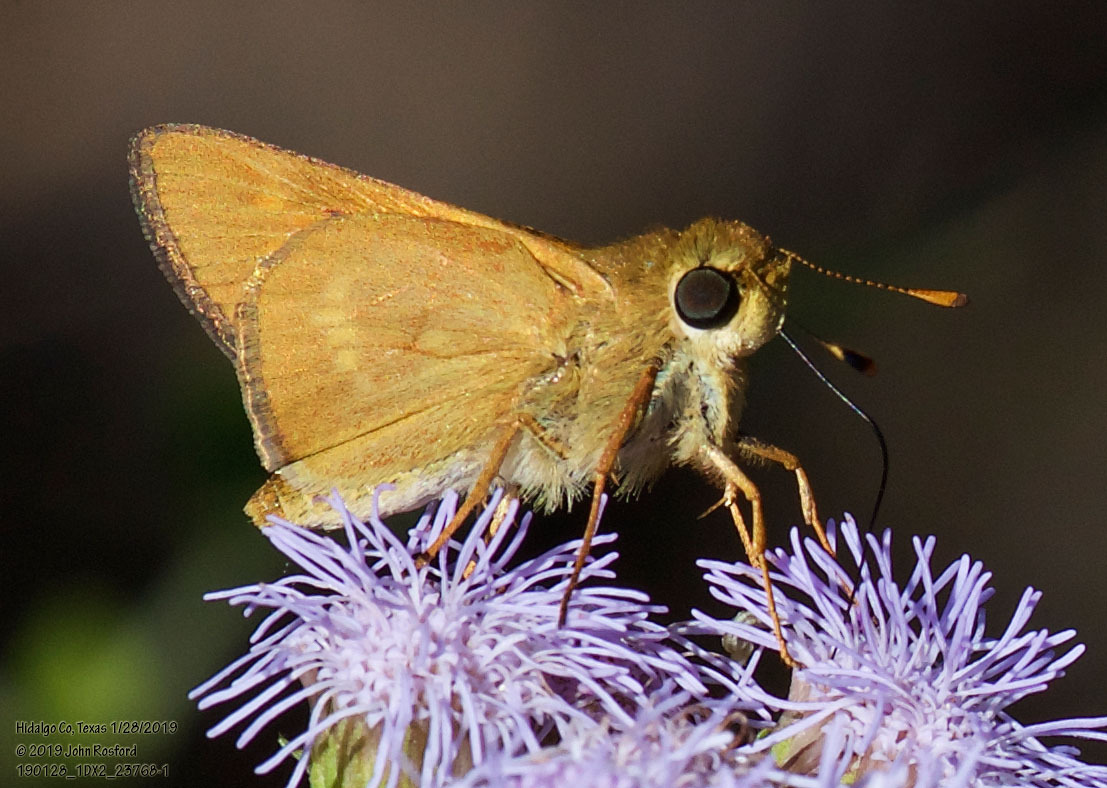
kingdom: Animalia
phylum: Arthropoda
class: Insecta
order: Lepidoptera
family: Hesperiidae
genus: Mellana
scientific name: Mellana eulogius
